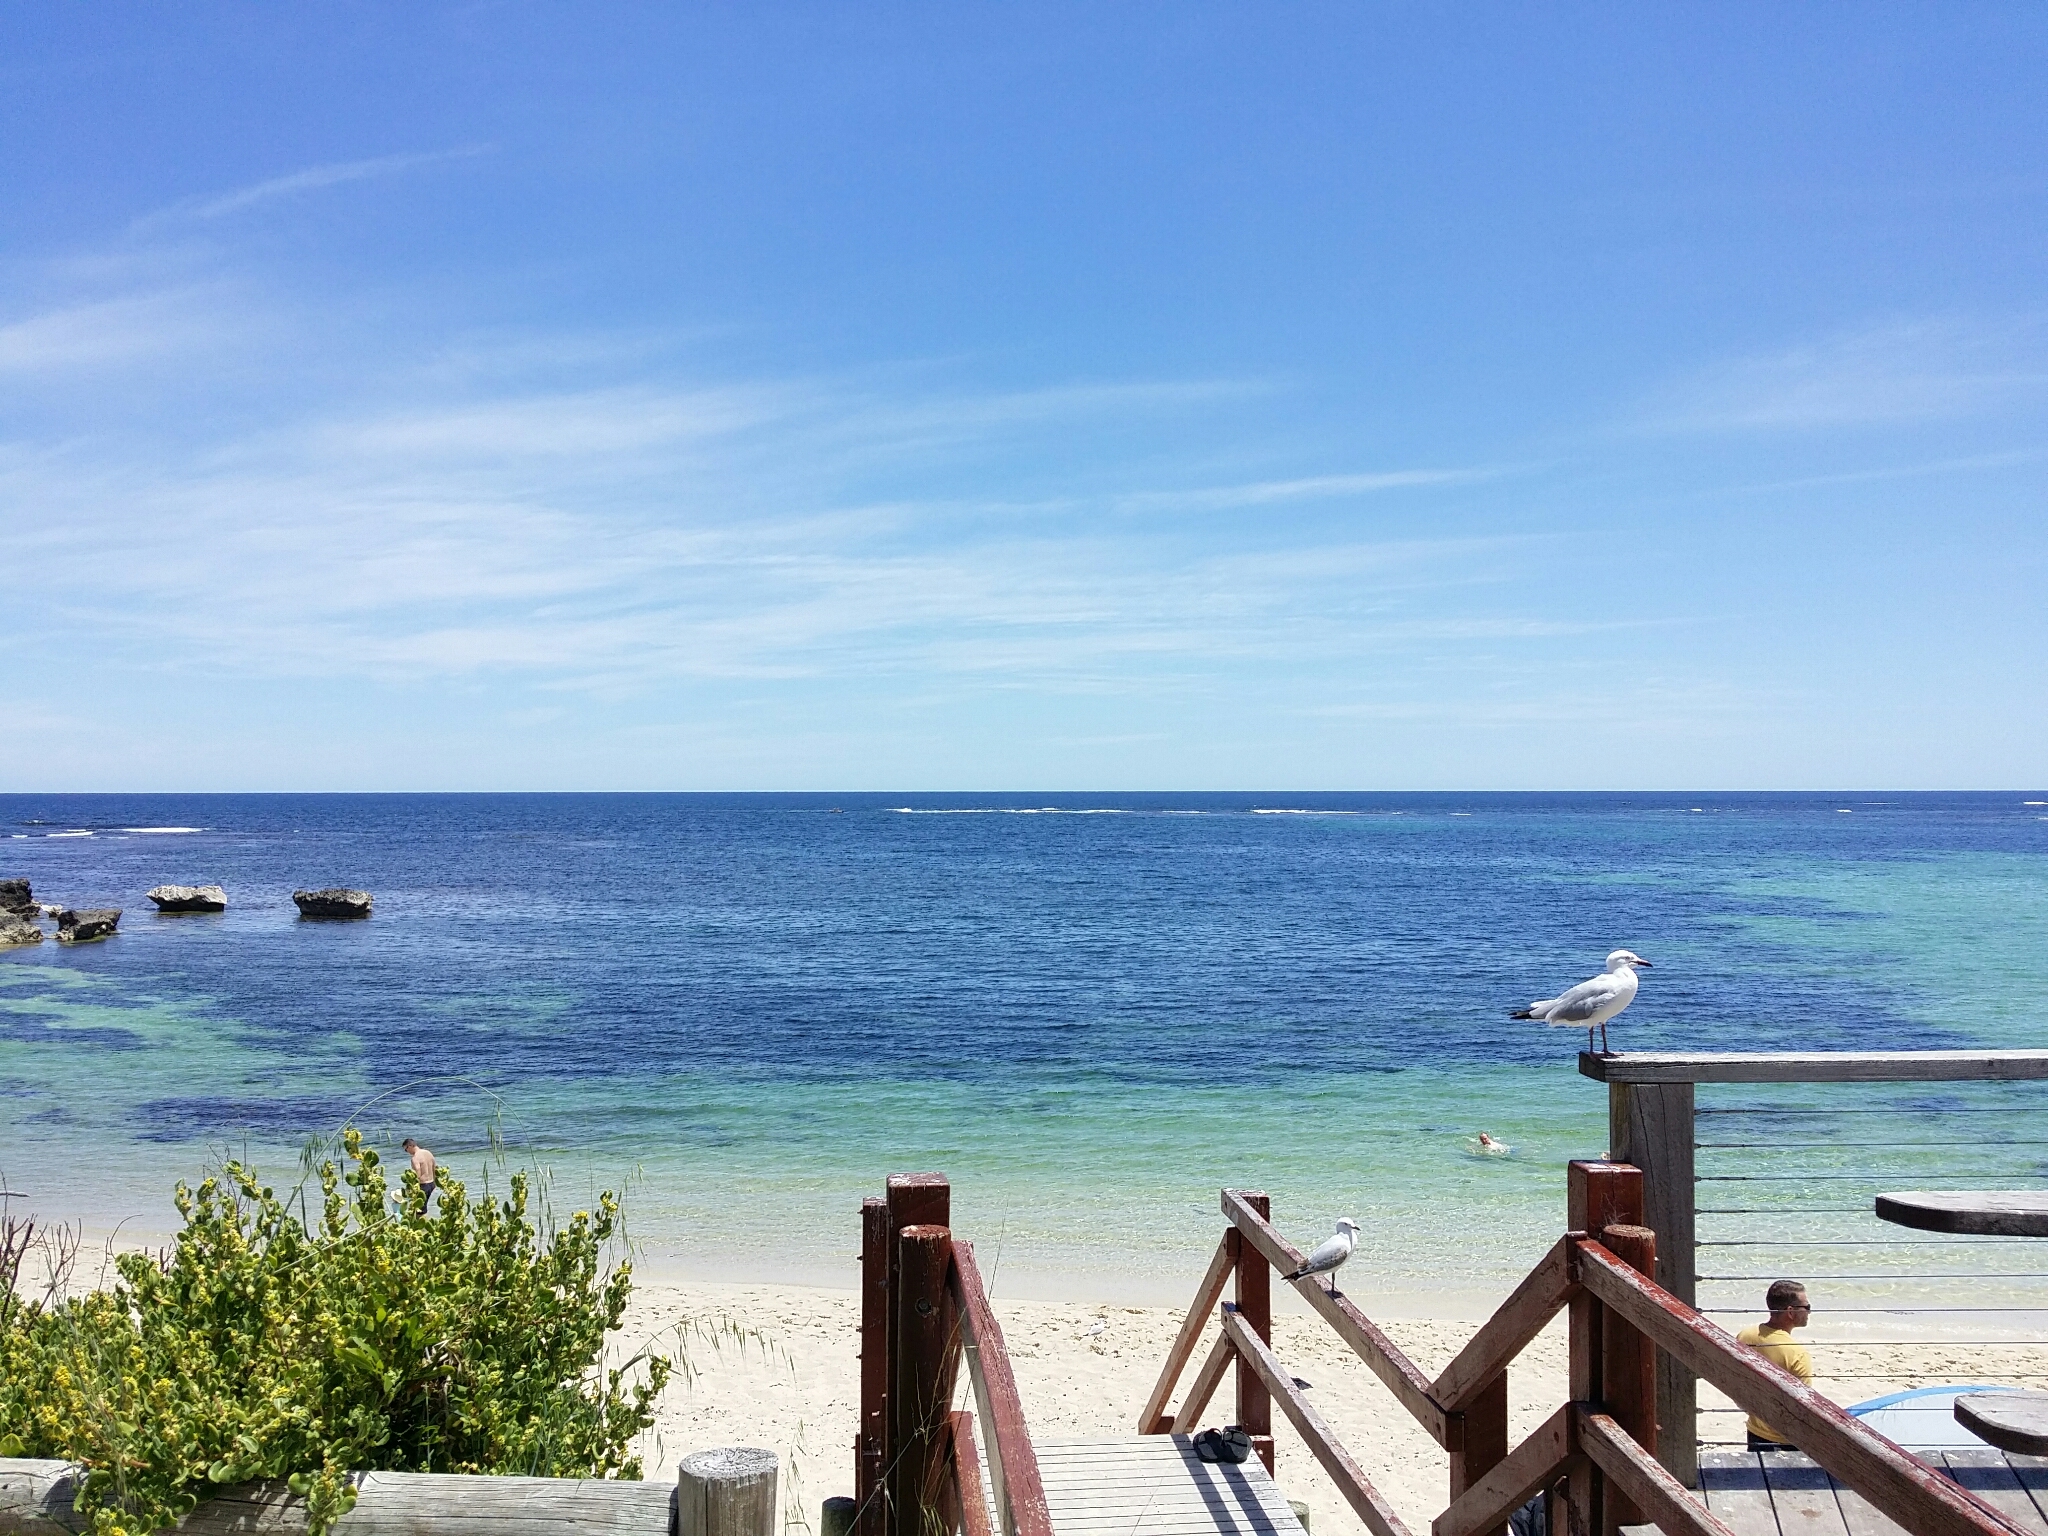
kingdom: Animalia
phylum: Chordata
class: Aves
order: Charadriiformes
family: Laridae
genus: Chroicocephalus
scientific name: Chroicocephalus novaehollandiae
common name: Silver gull
